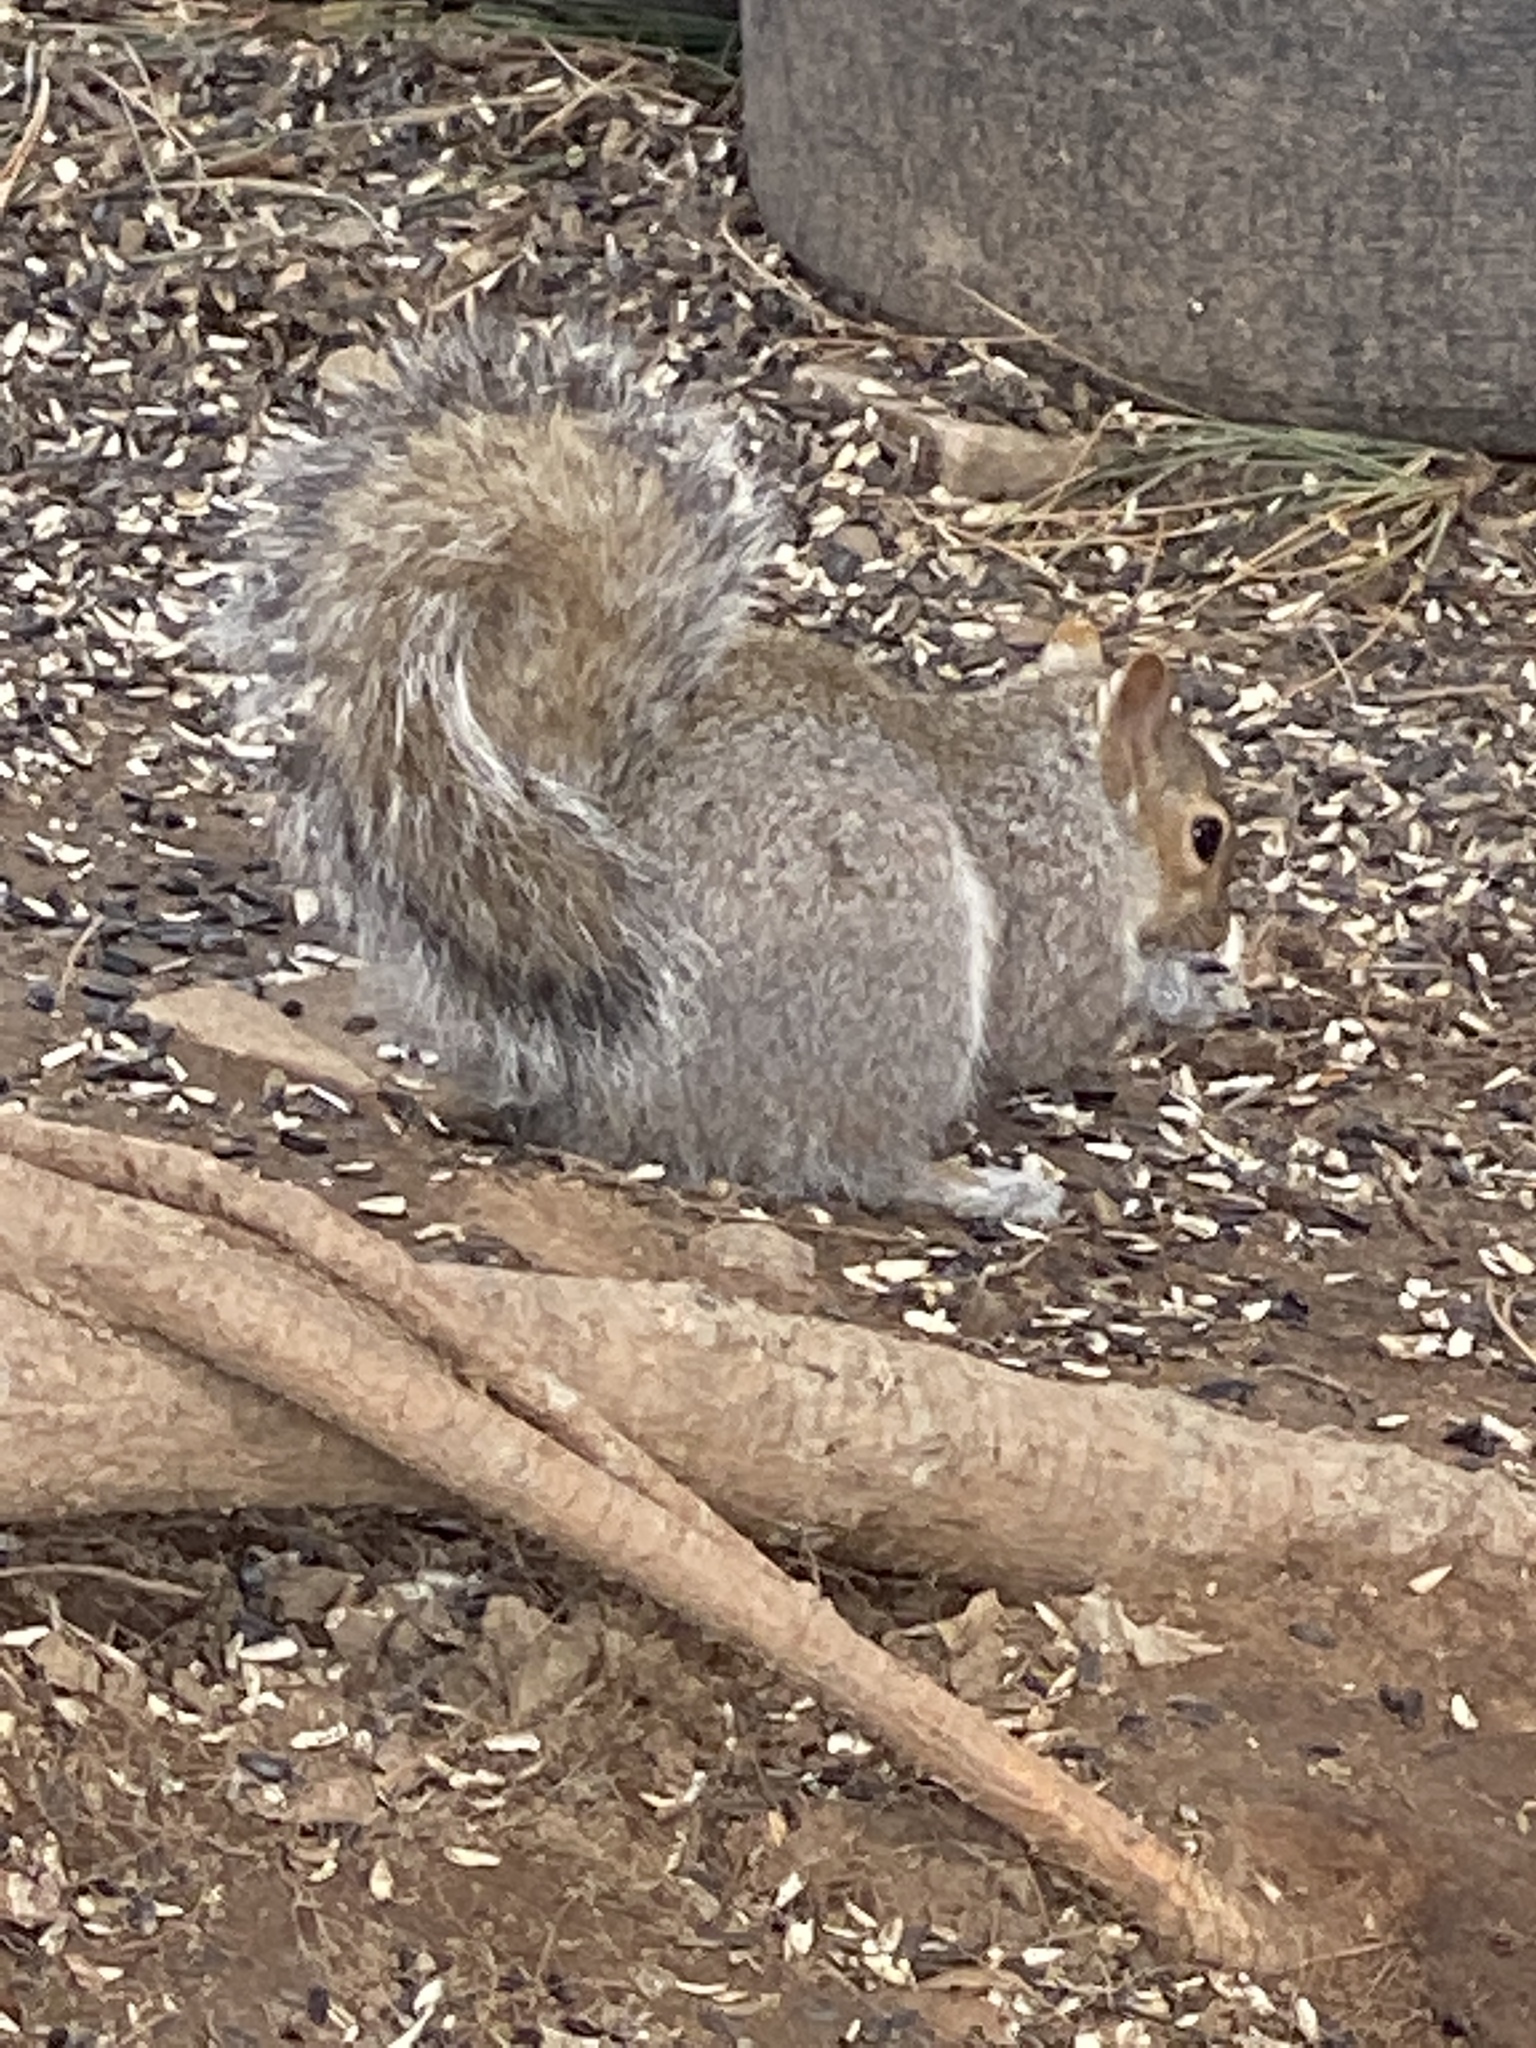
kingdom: Animalia
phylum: Chordata
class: Mammalia
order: Rodentia
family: Sciuridae
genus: Sciurus
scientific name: Sciurus carolinensis
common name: Eastern gray squirrel
